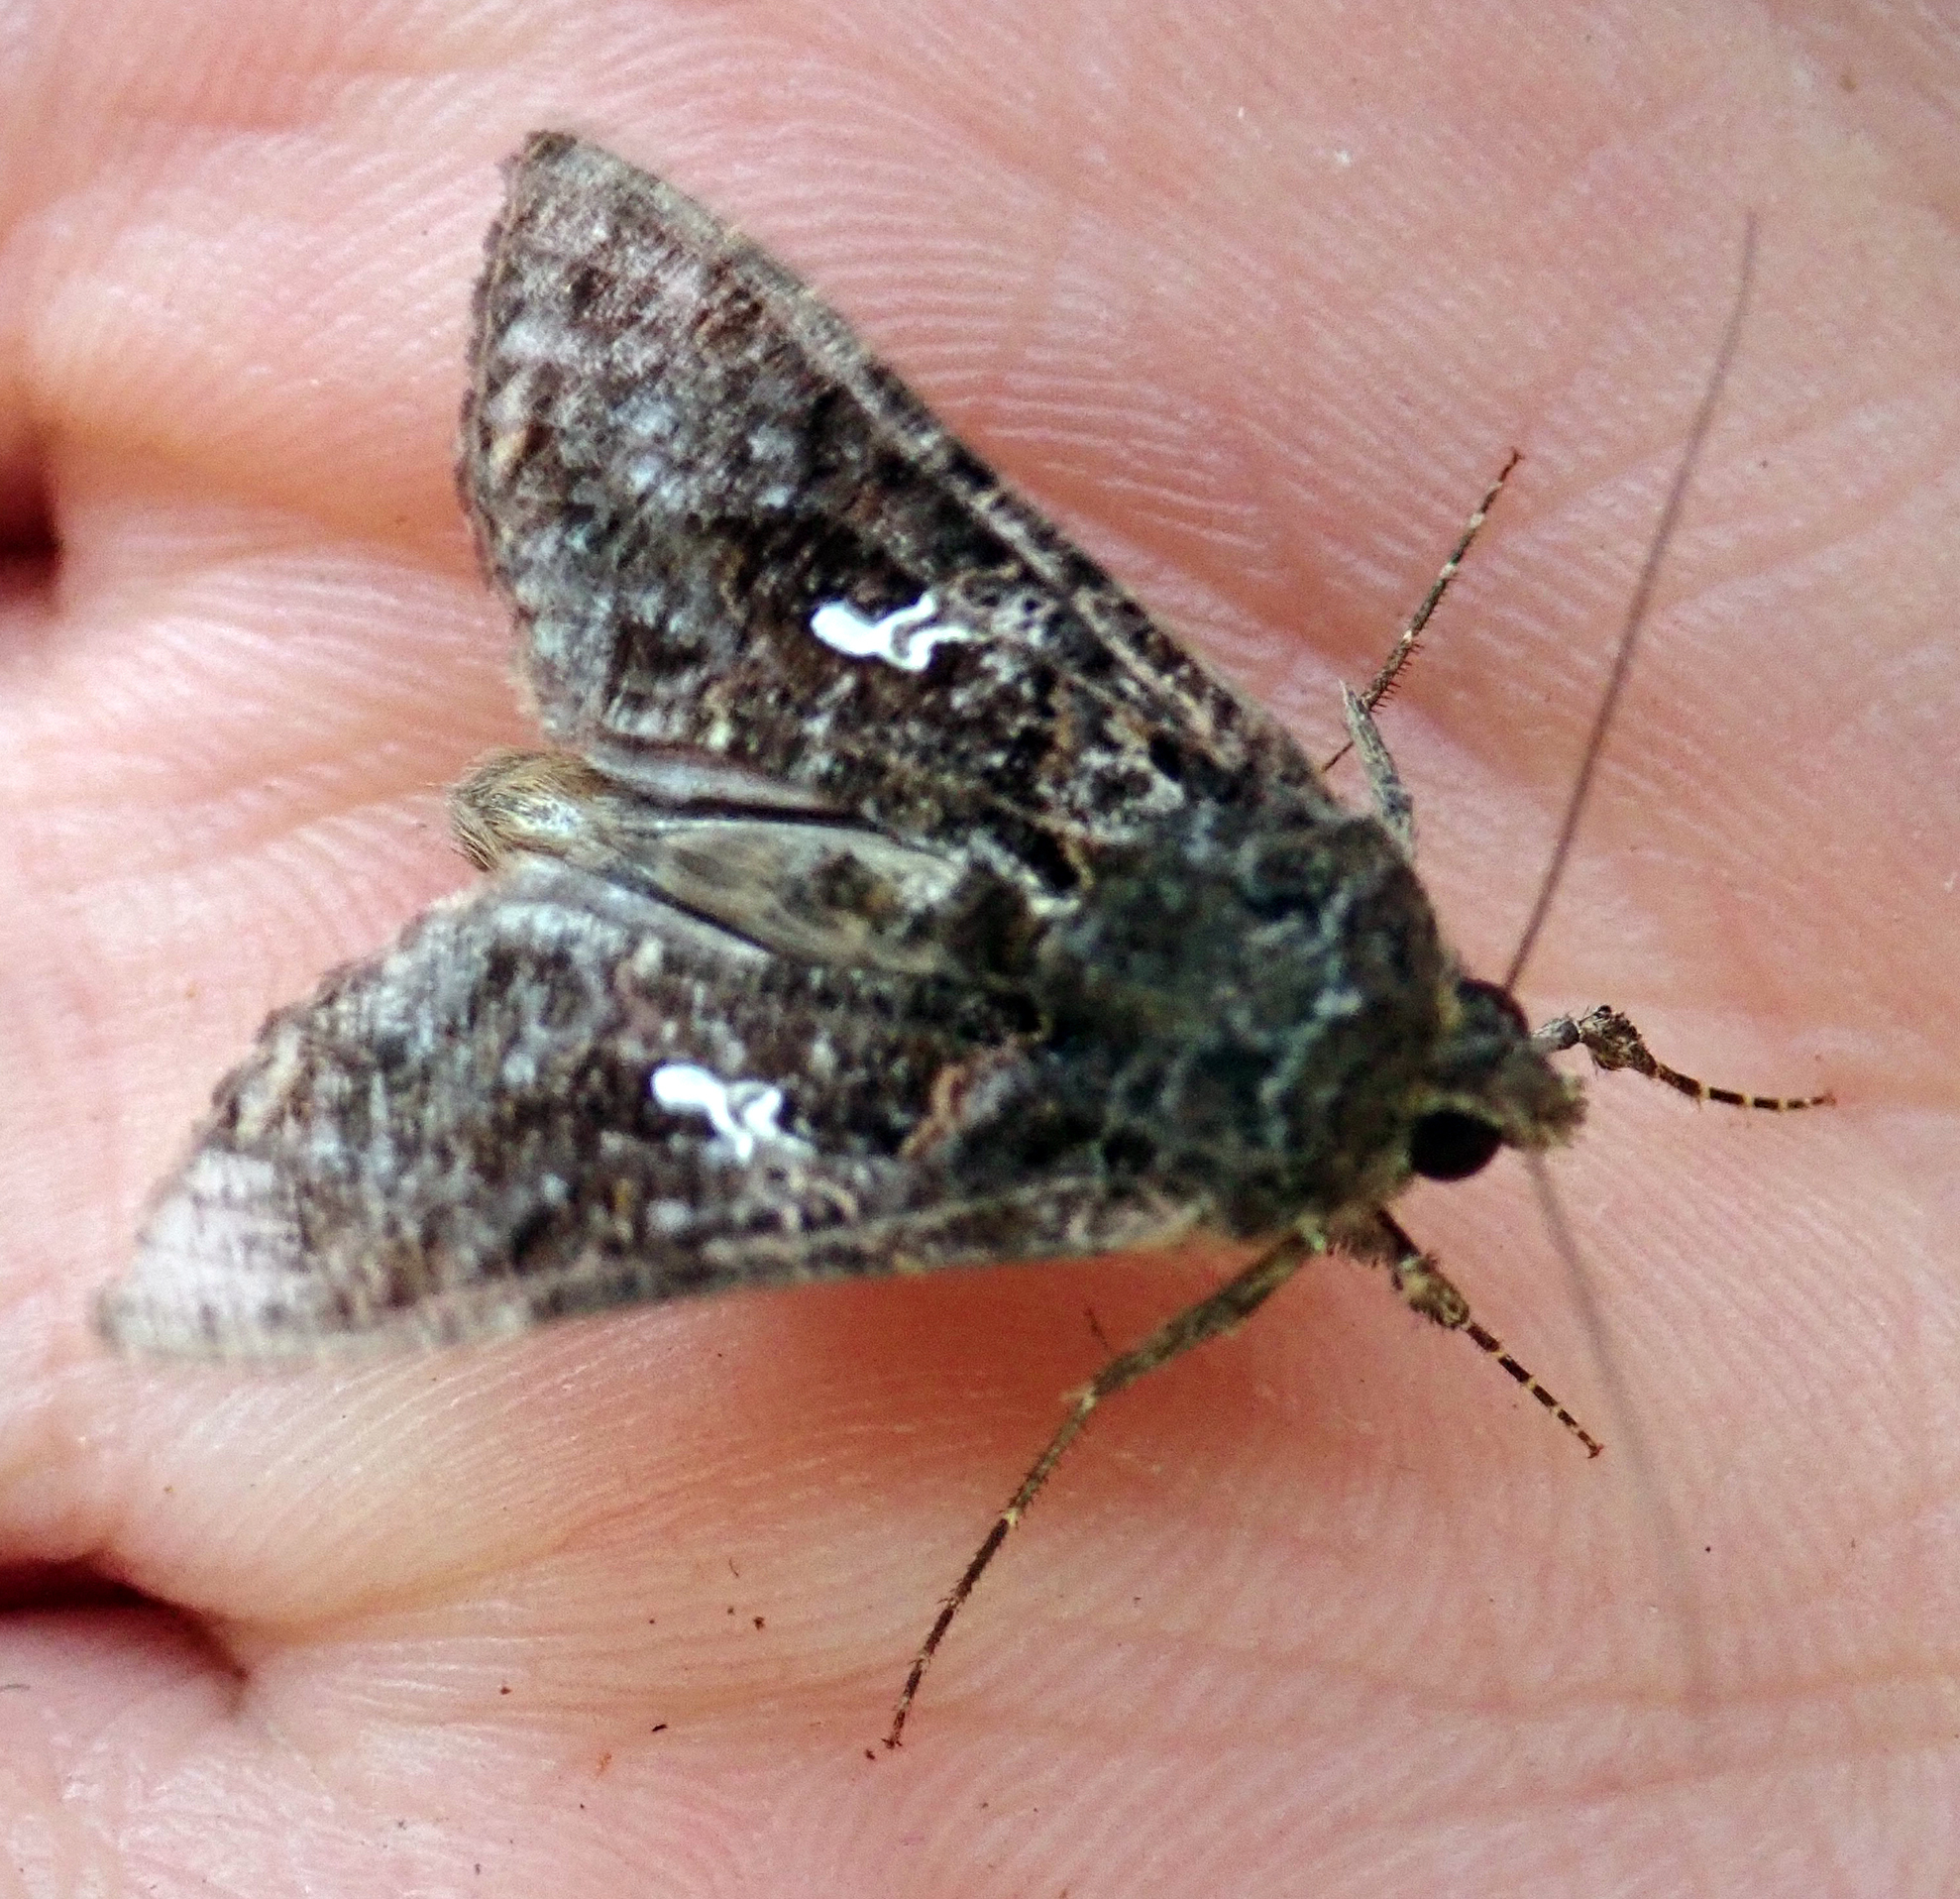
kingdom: Animalia
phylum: Arthropoda
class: Insecta
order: Lepidoptera
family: Noctuidae
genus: Ctenoplusia
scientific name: Ctenoplusia limbirena
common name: Scar bank gem
